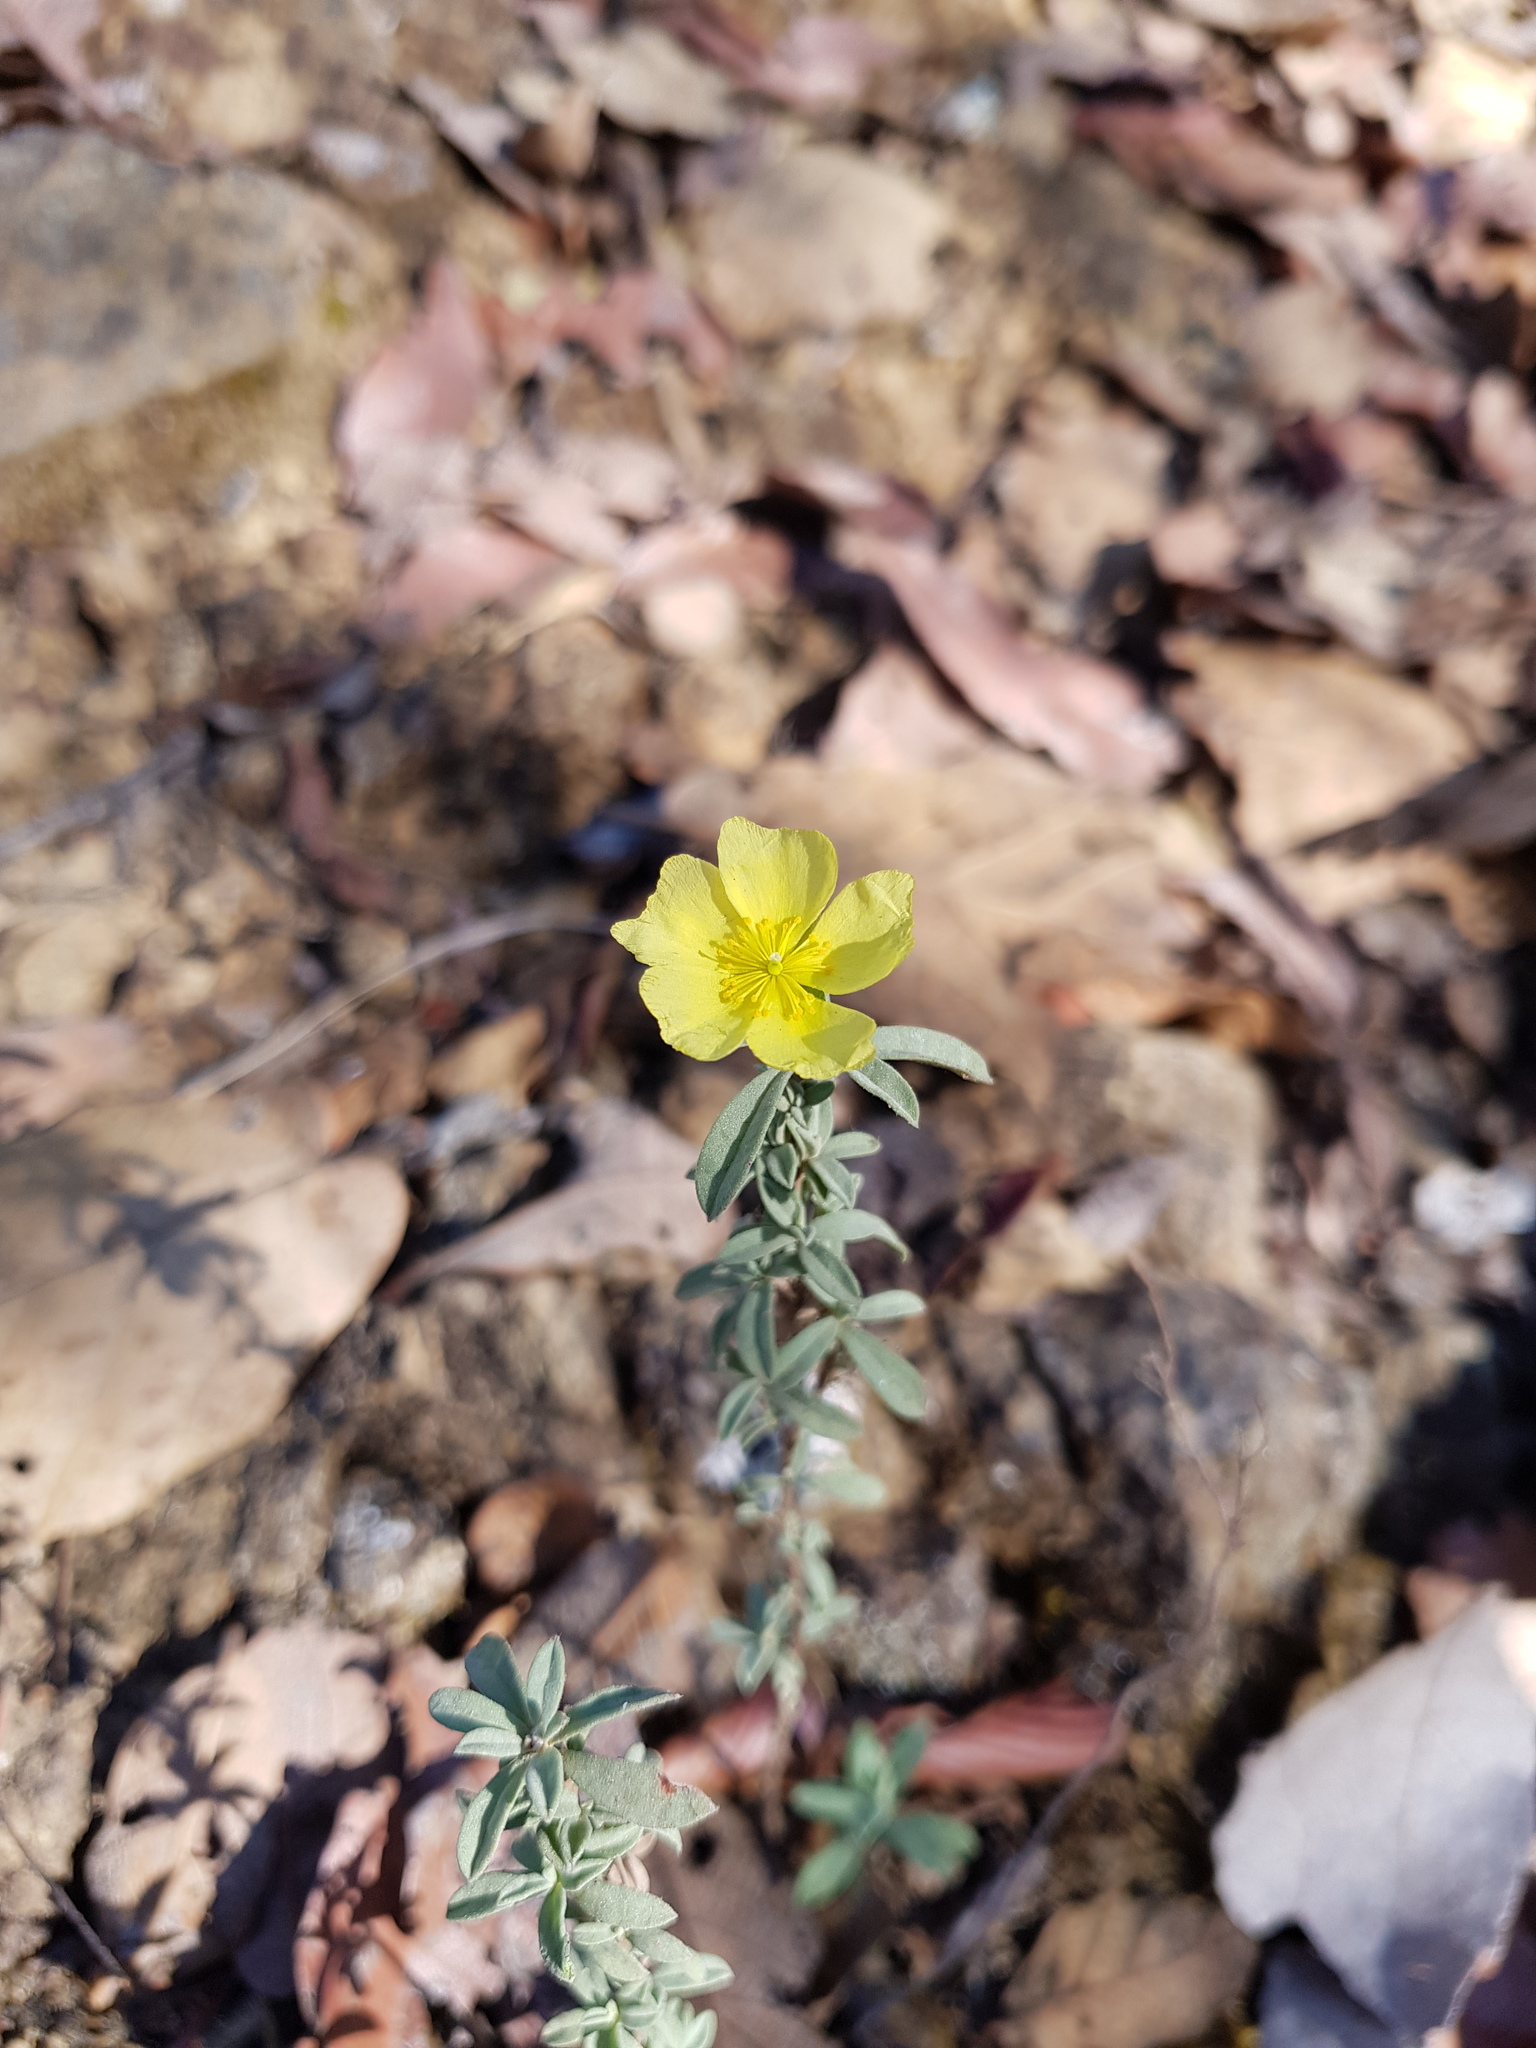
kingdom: Plantae
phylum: Tracheophyta
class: Magnoliopsida
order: Malvales
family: Cistaceae
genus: Crocanthemum
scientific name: Crocanthemum glomeratum
